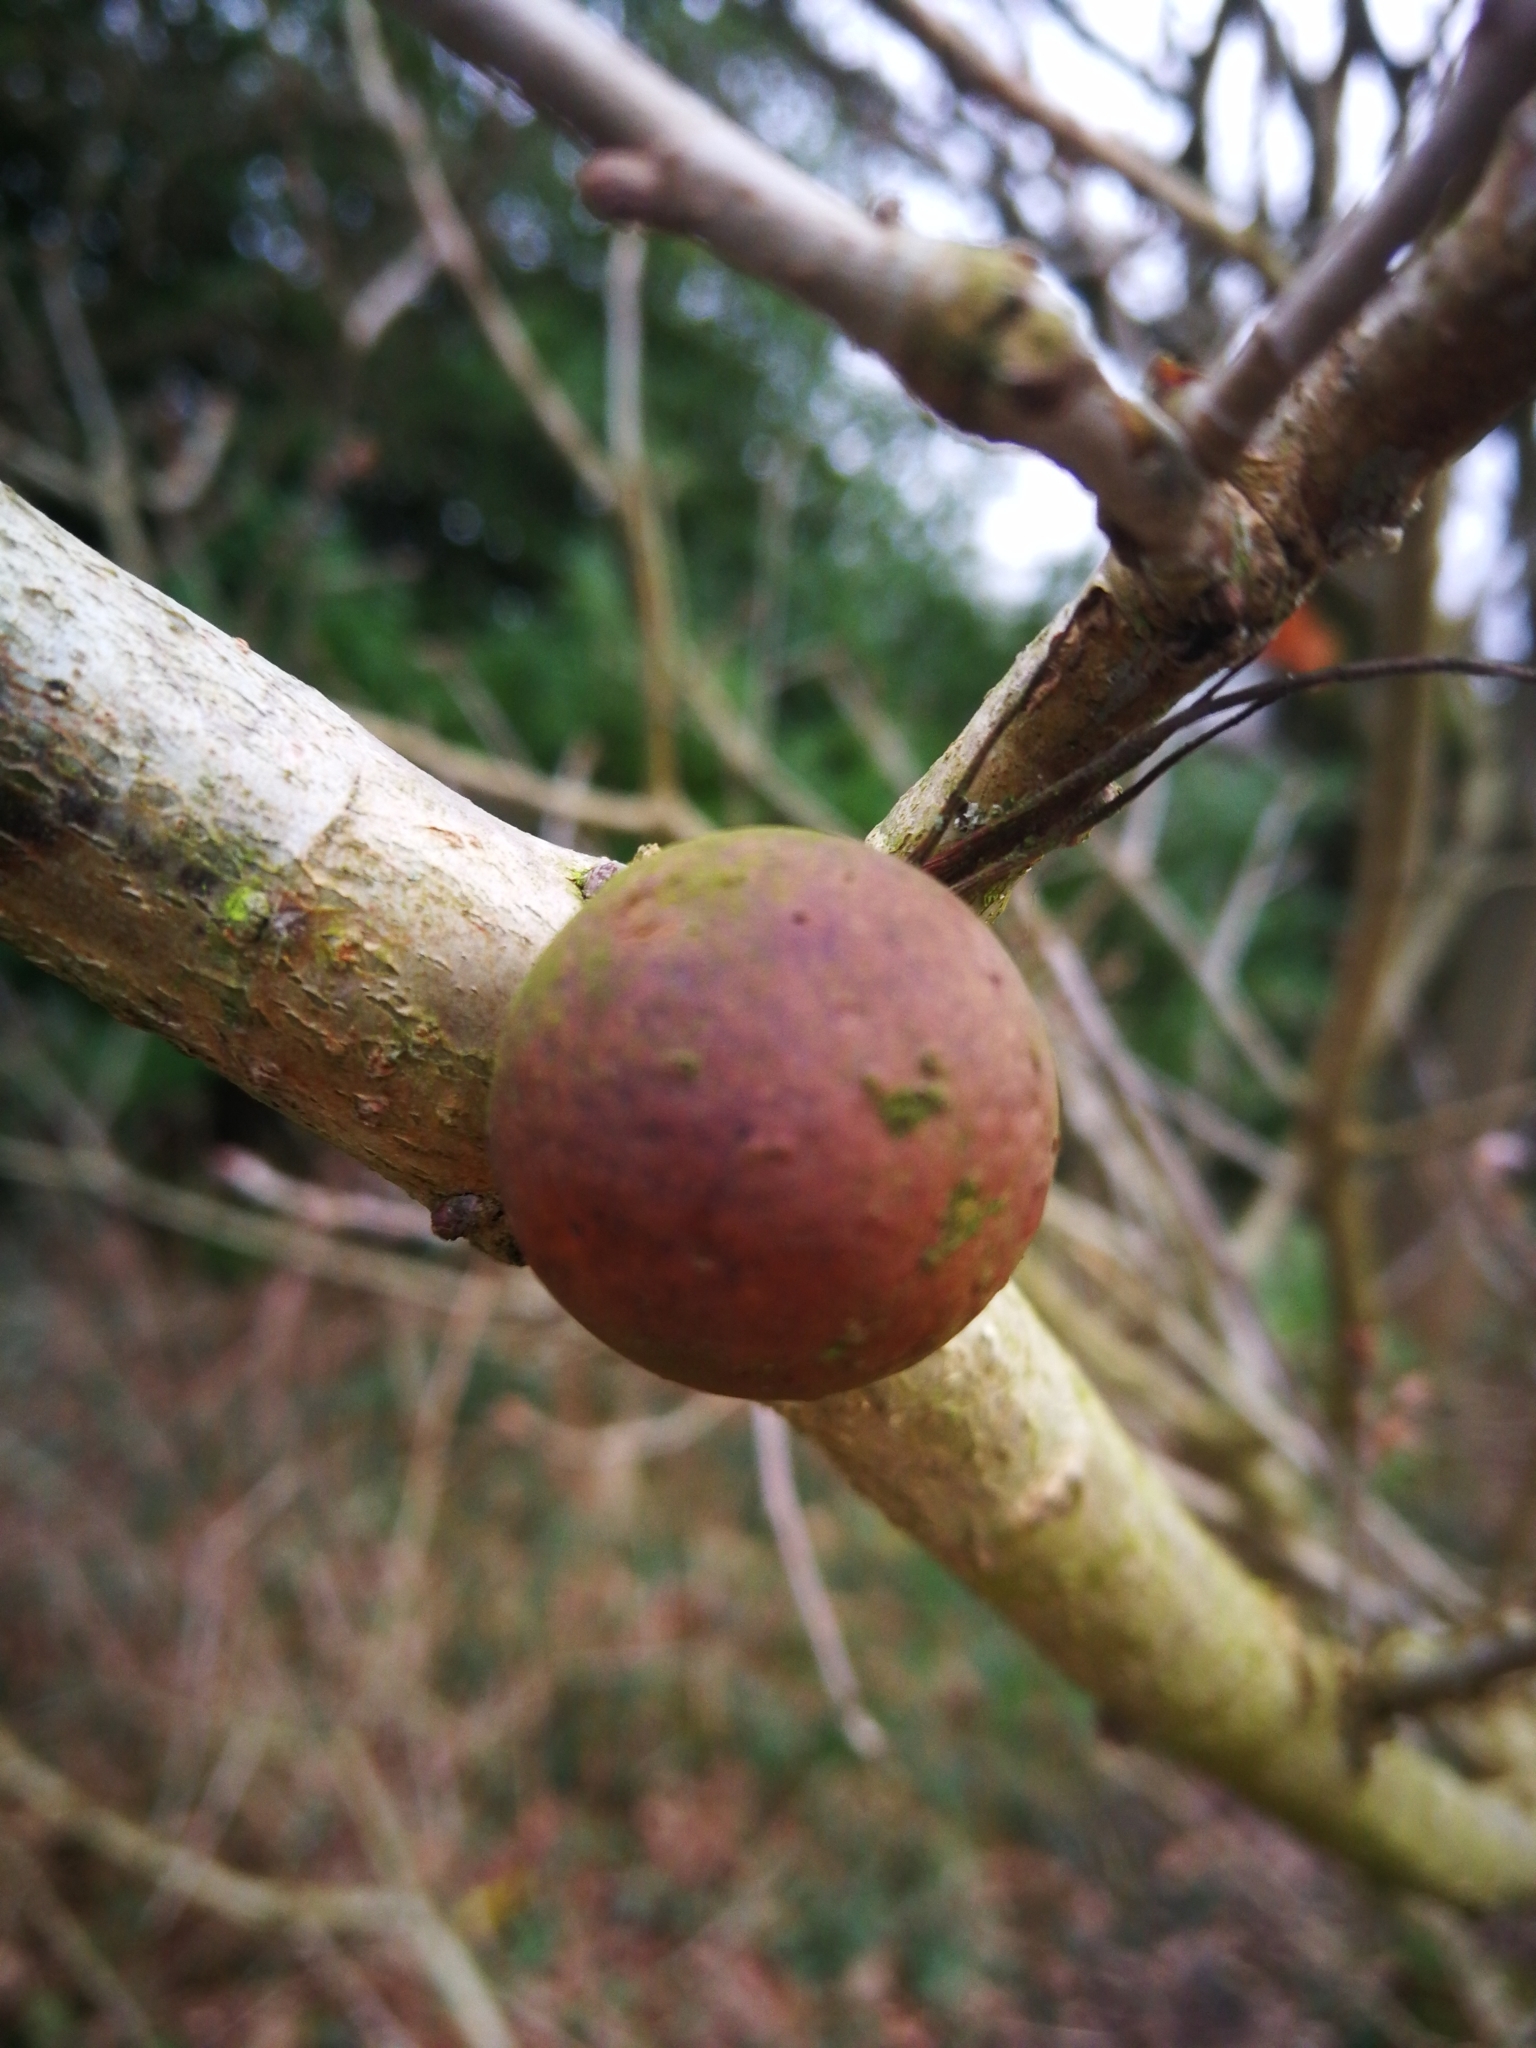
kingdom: Animalia
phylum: Arthropoda
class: Insecta
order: Hymenoptera
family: Cynipidae
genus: Andricus
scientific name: Andricus kollari
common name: Marble gall
